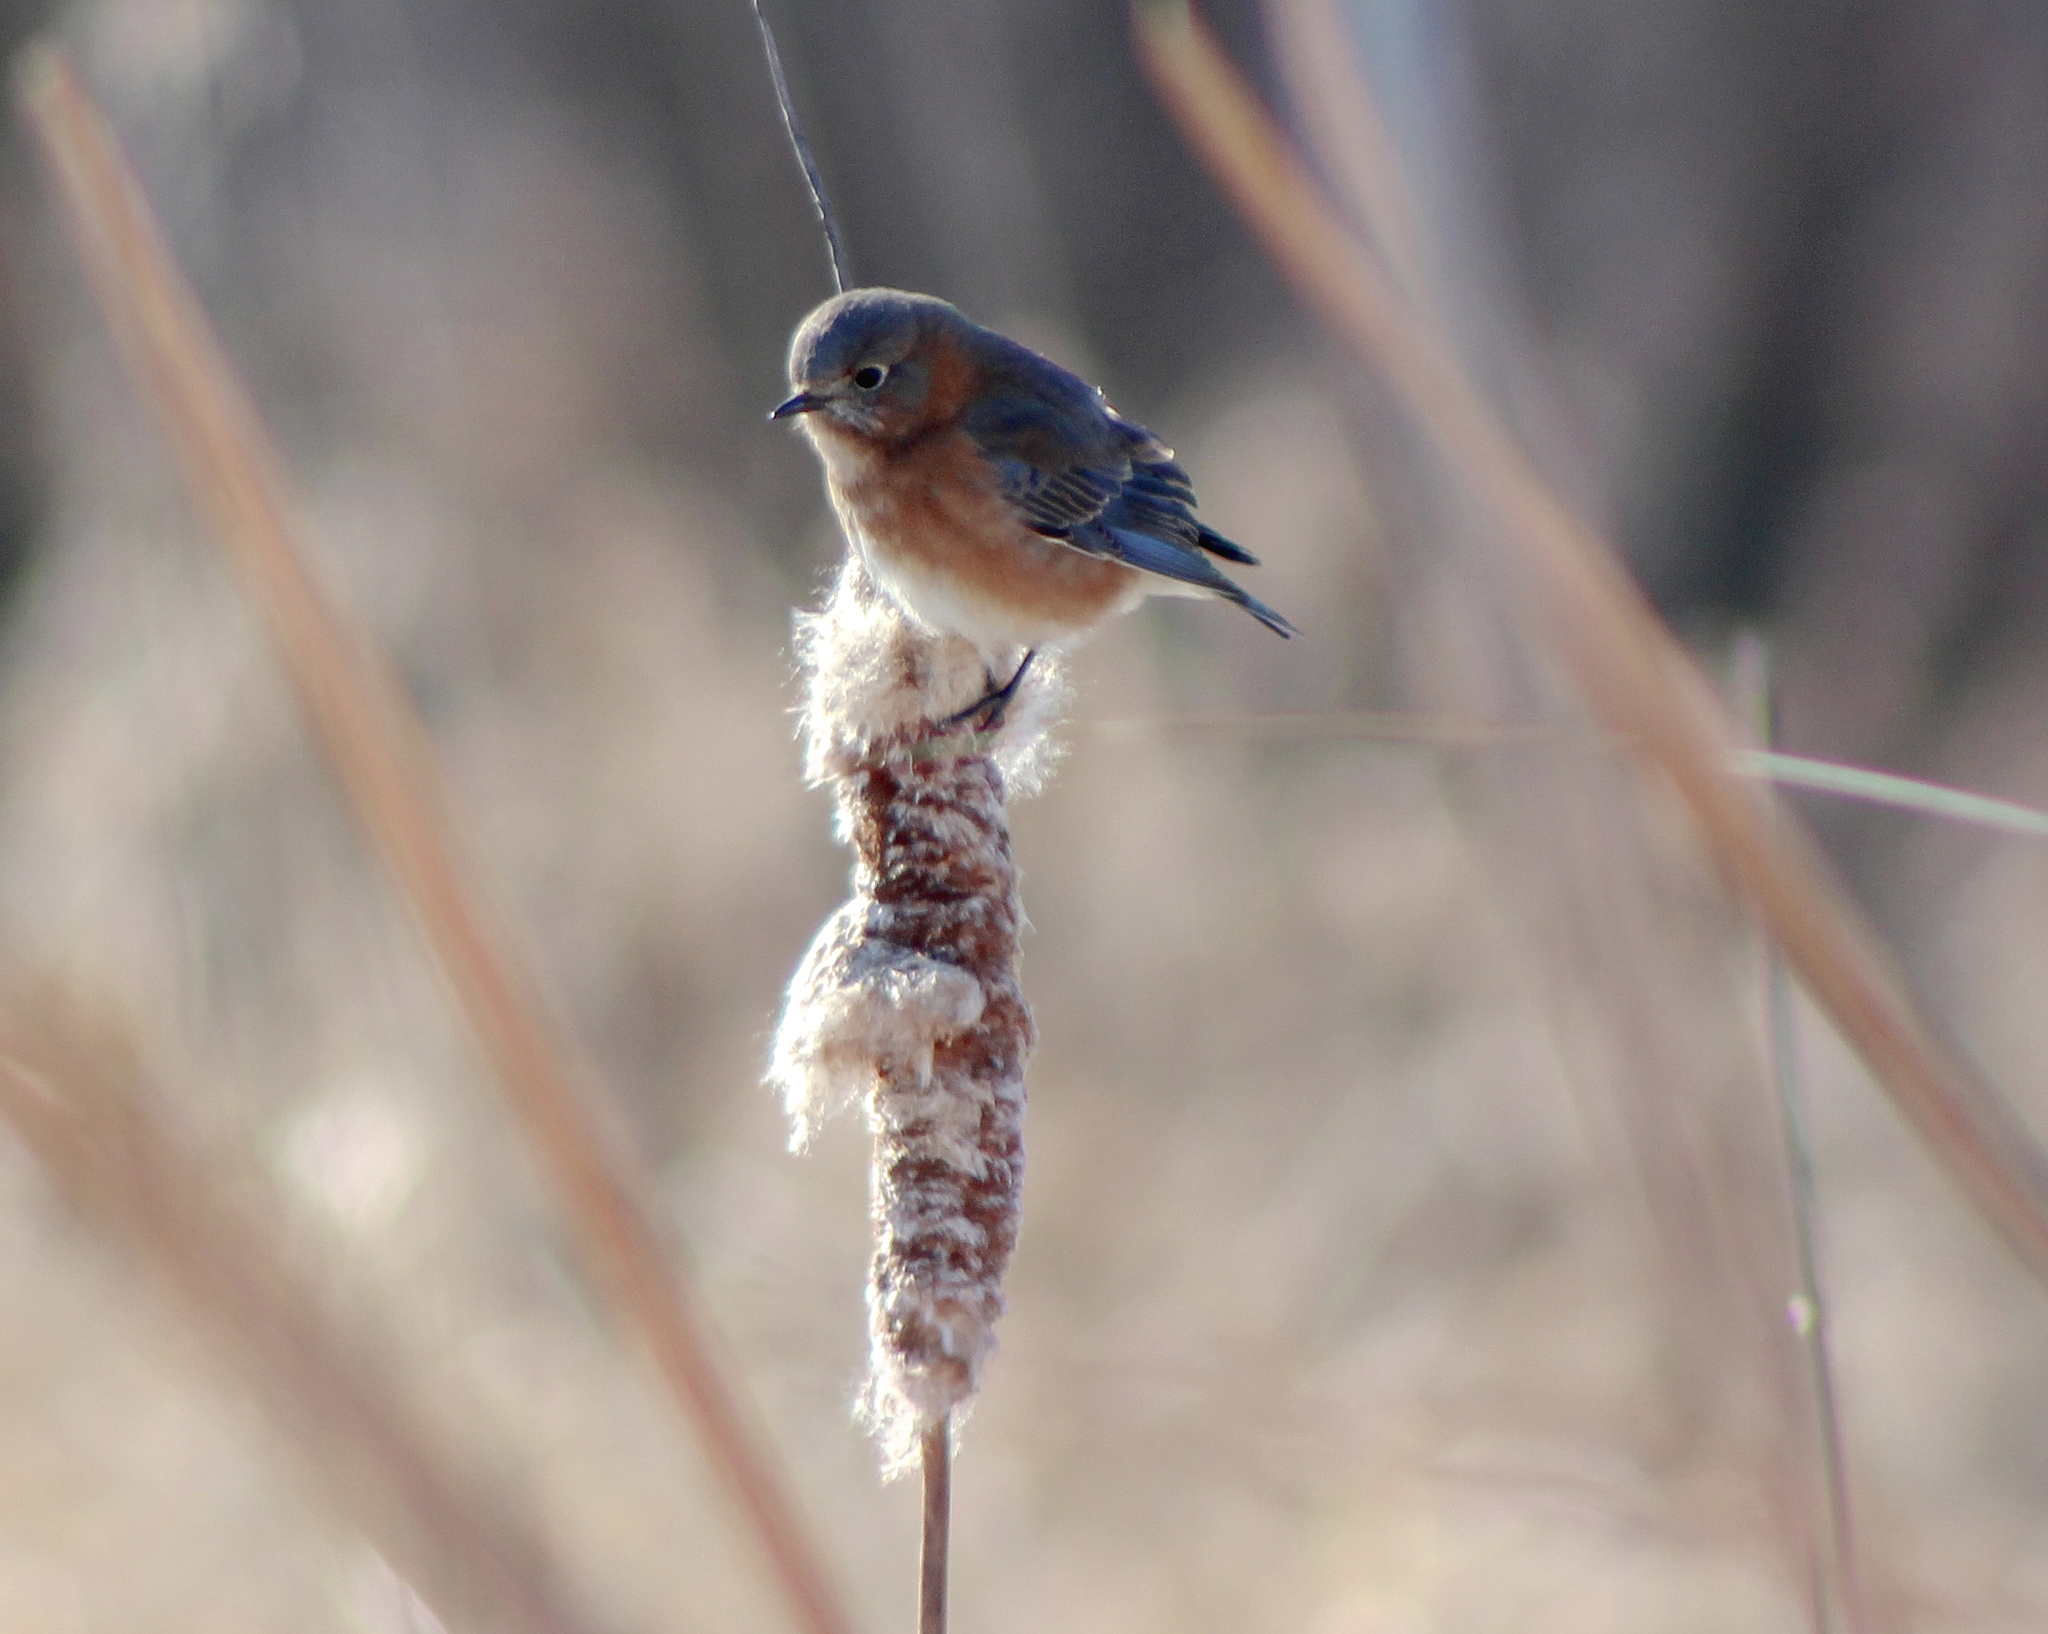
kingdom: Animalia
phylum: Chordata
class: Aves
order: Passeriformes
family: Turdidae
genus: Sialia
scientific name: Sialia sialis
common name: Eastern bluebird
